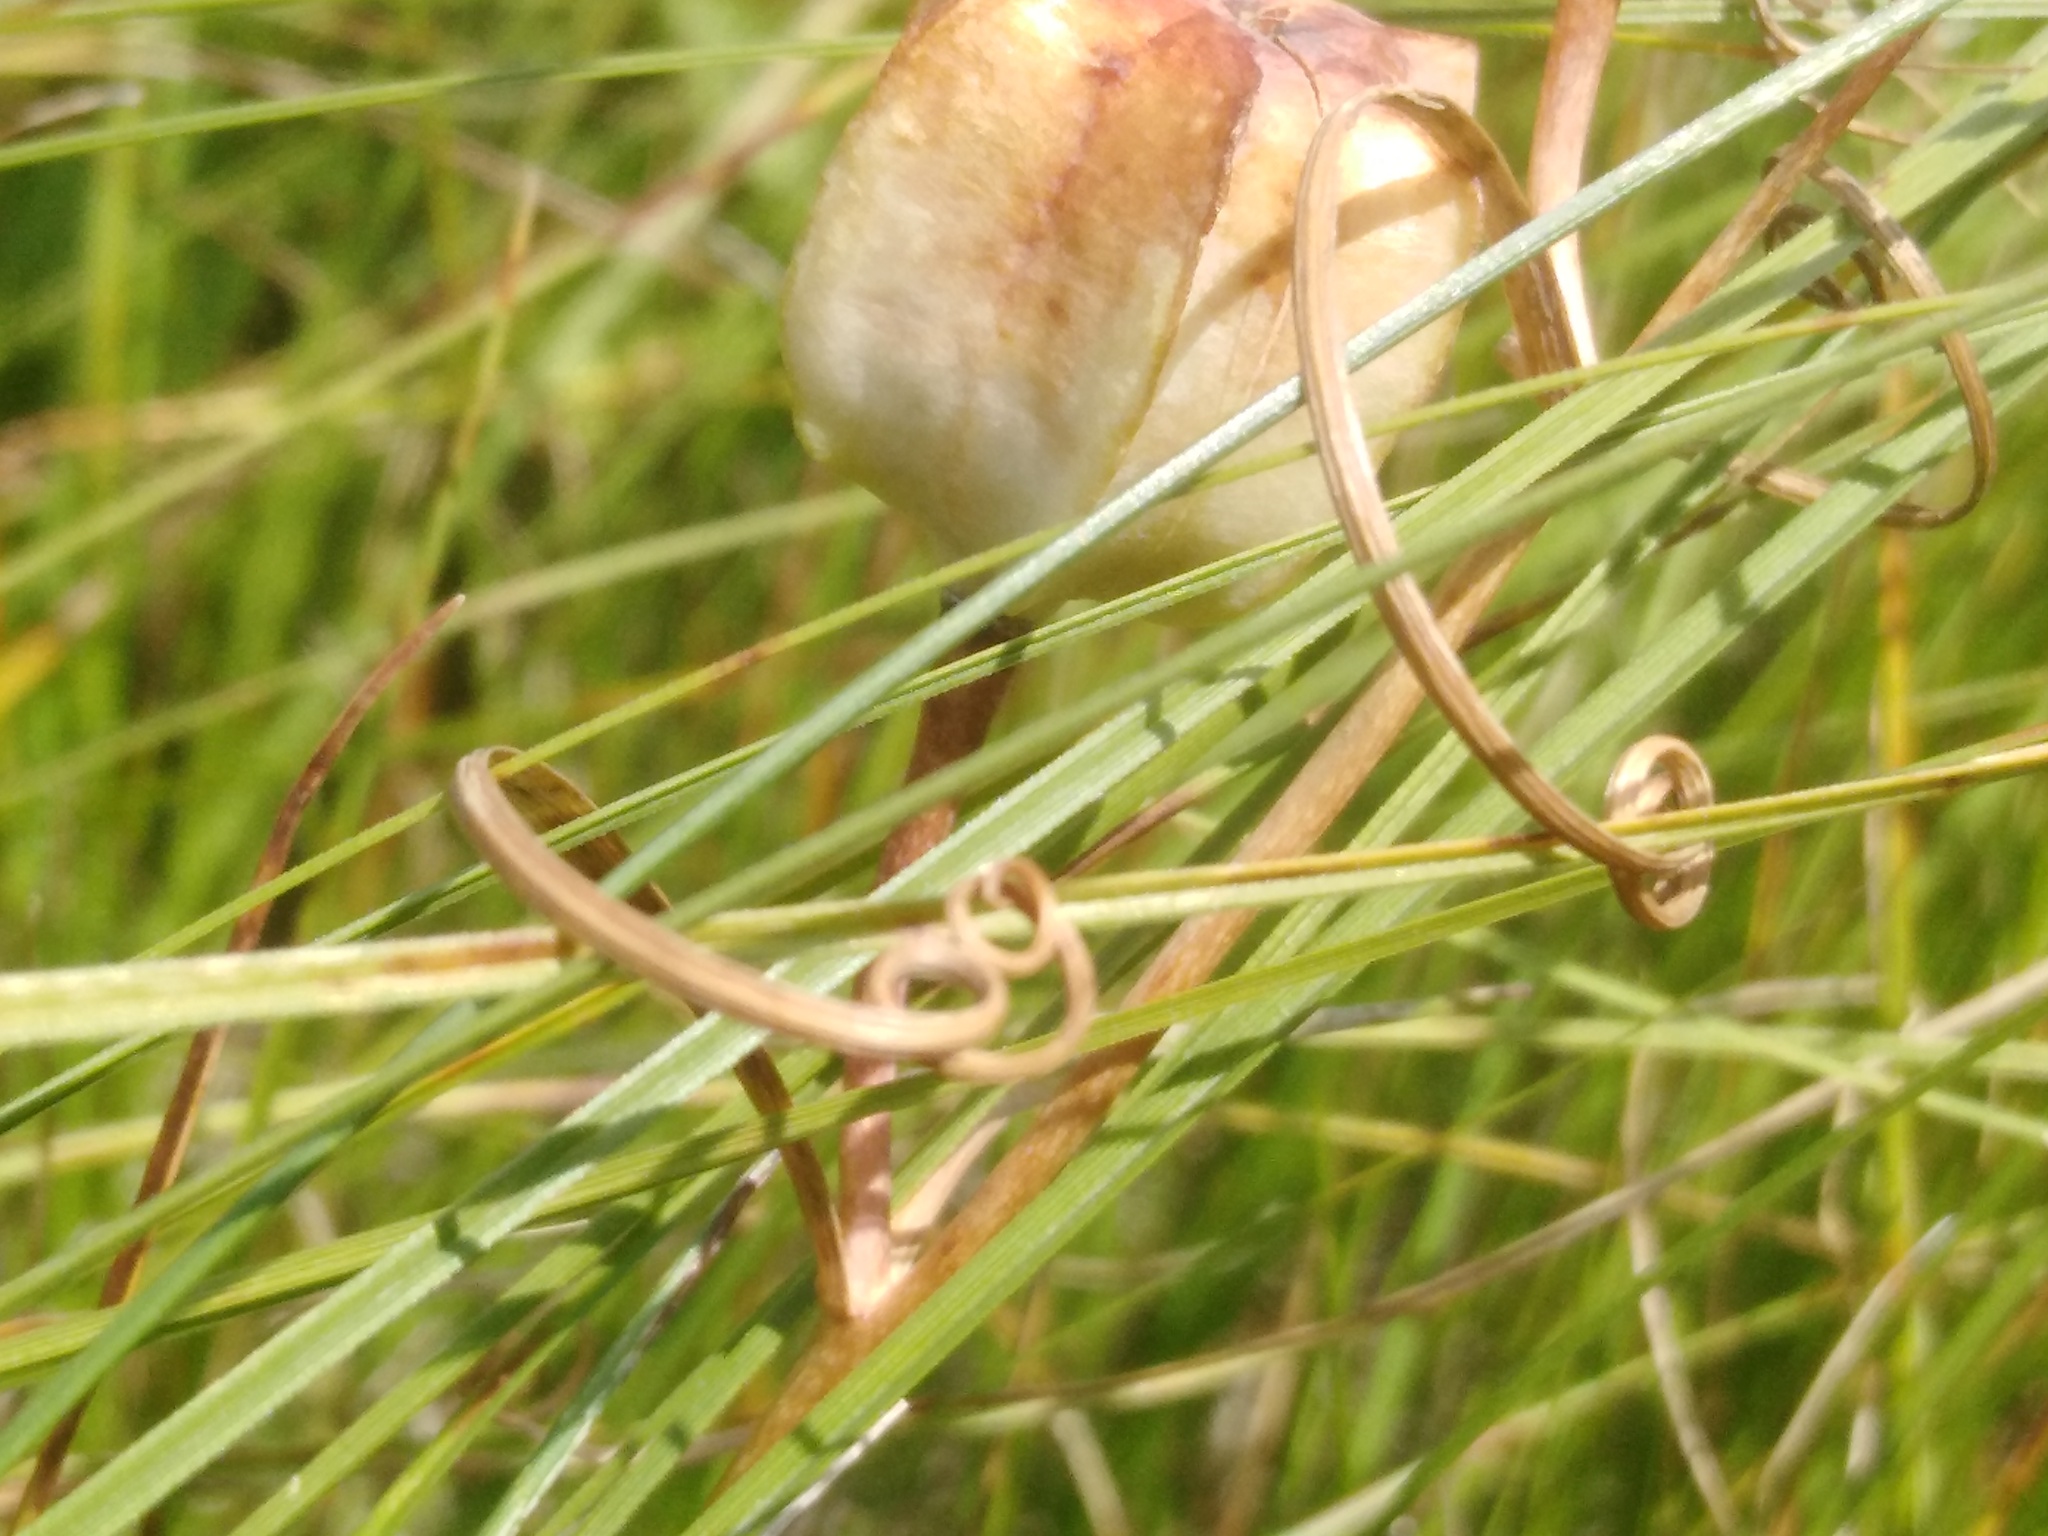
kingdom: Plantae
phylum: Tracheophyta
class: Liliopsida
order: Liliales
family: Liliaceae
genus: Fritillaria
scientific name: Fritillaria ruthenica
